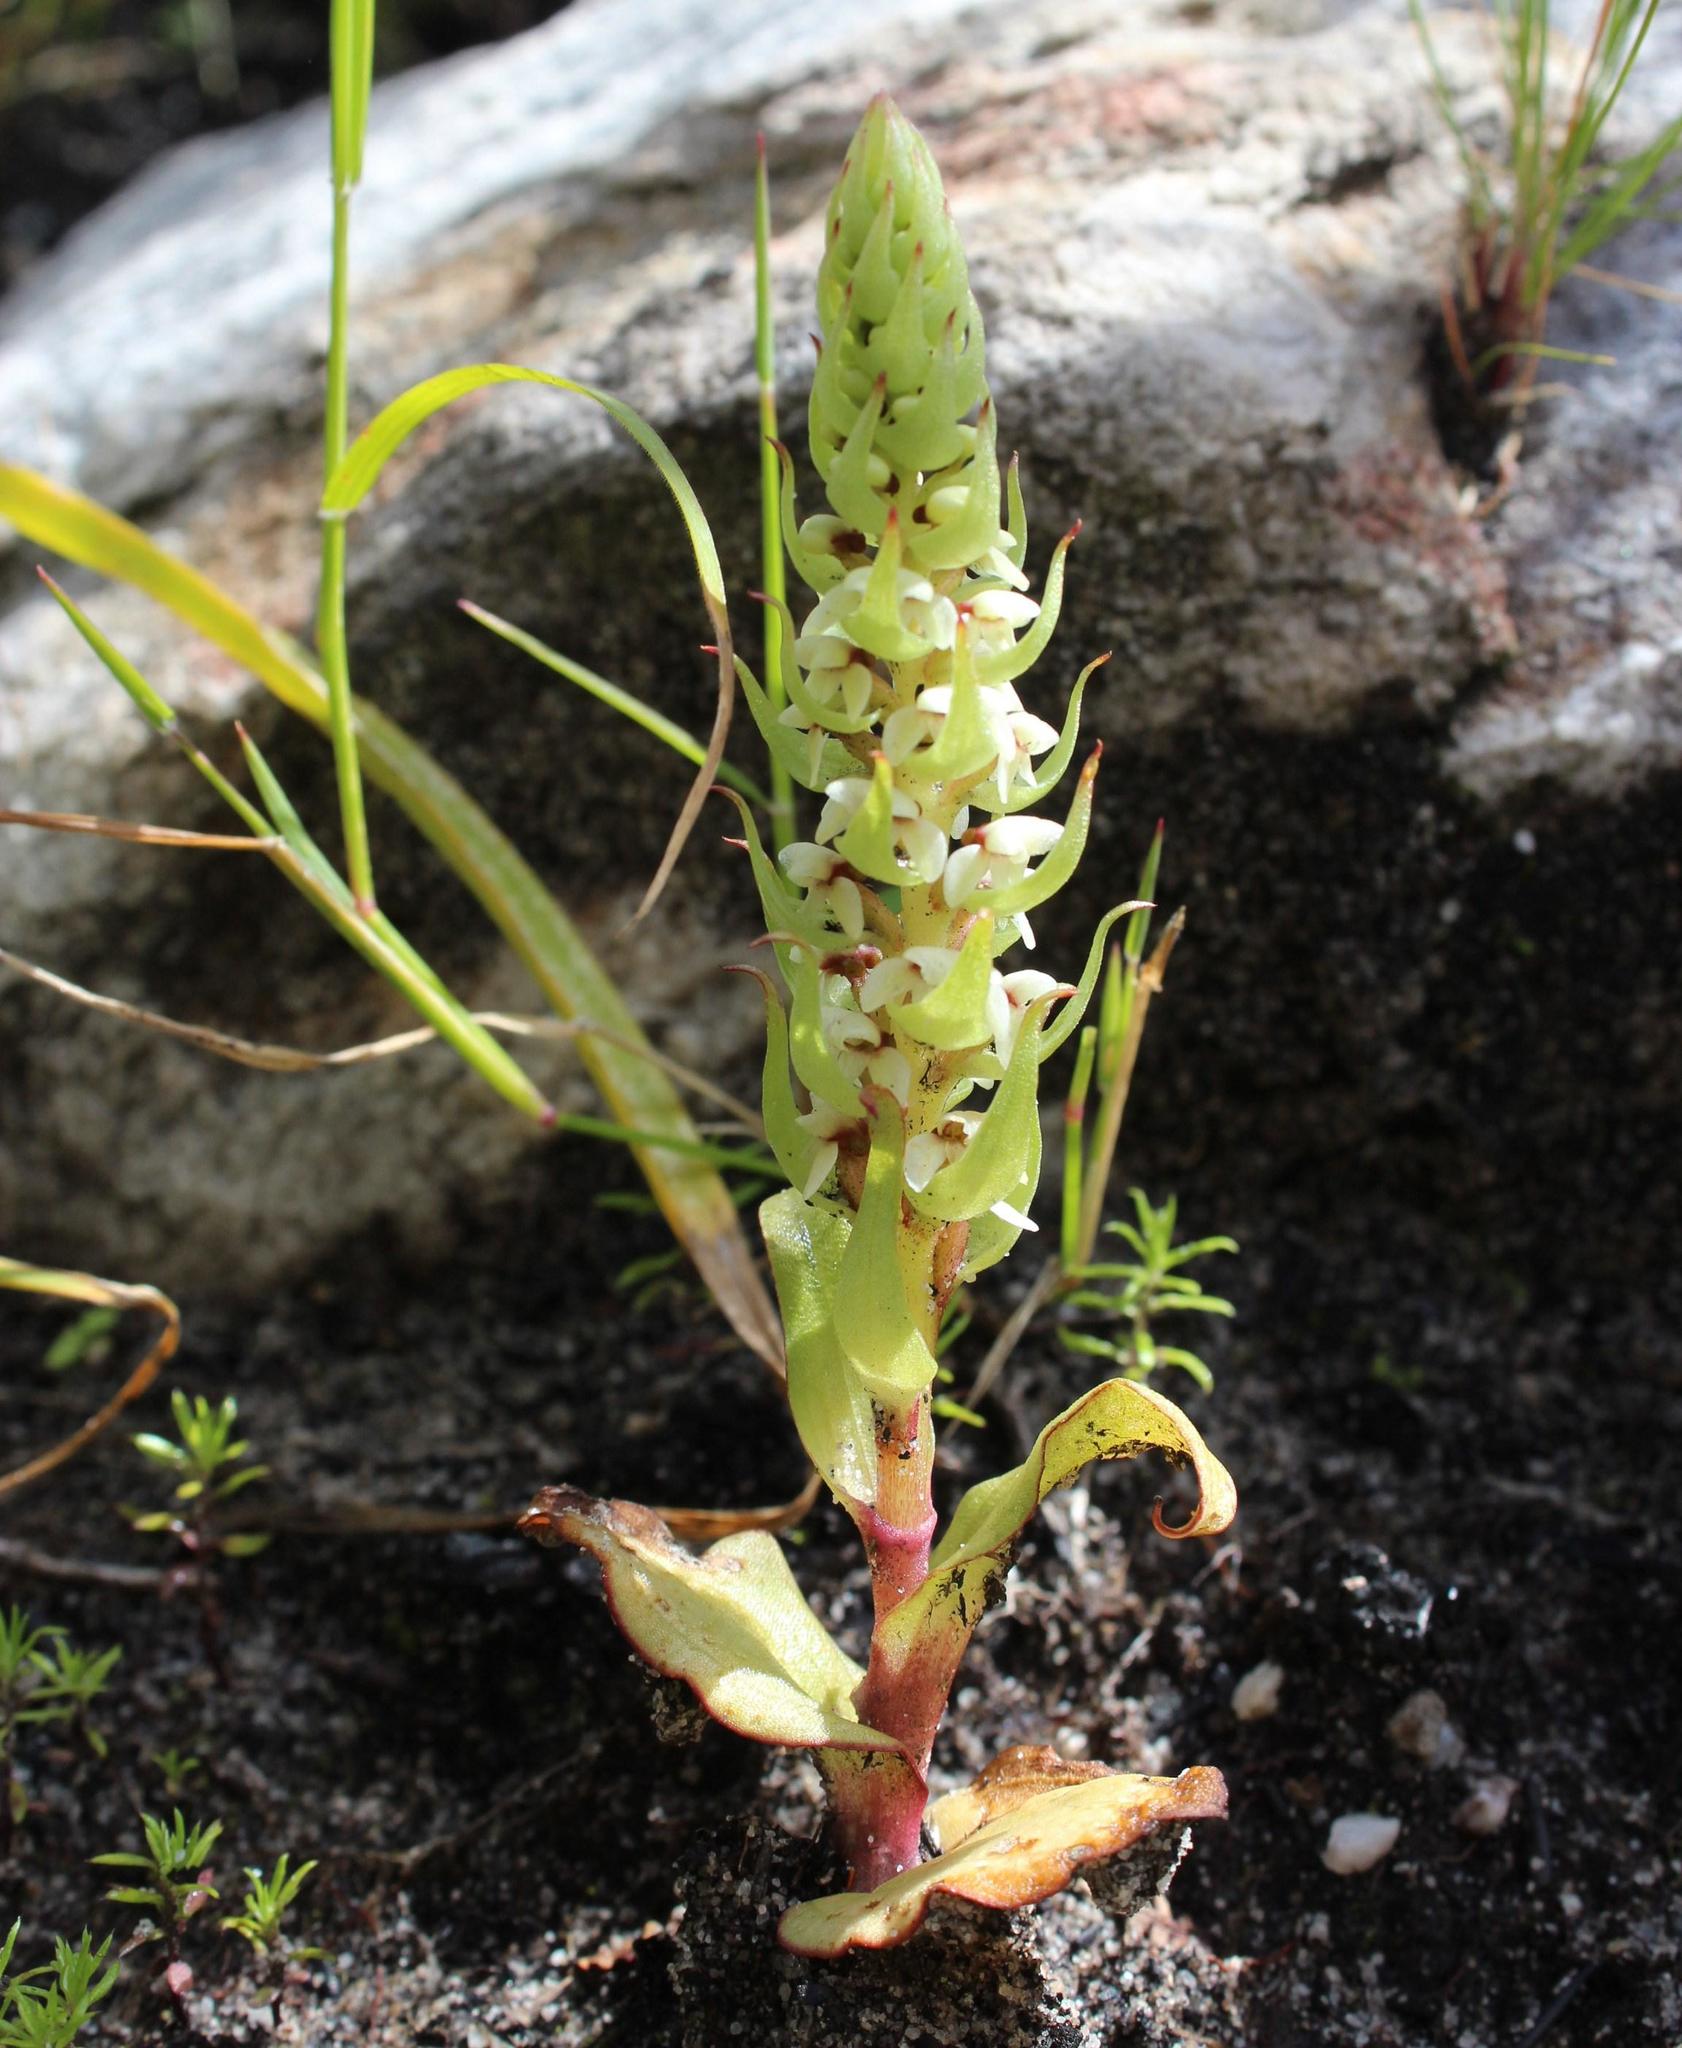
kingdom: Plantae
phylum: Tracheophyta
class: Liliopsida
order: Asparagales
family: Orchidaceae
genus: Satyrium
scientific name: Satyrium bicallosum
